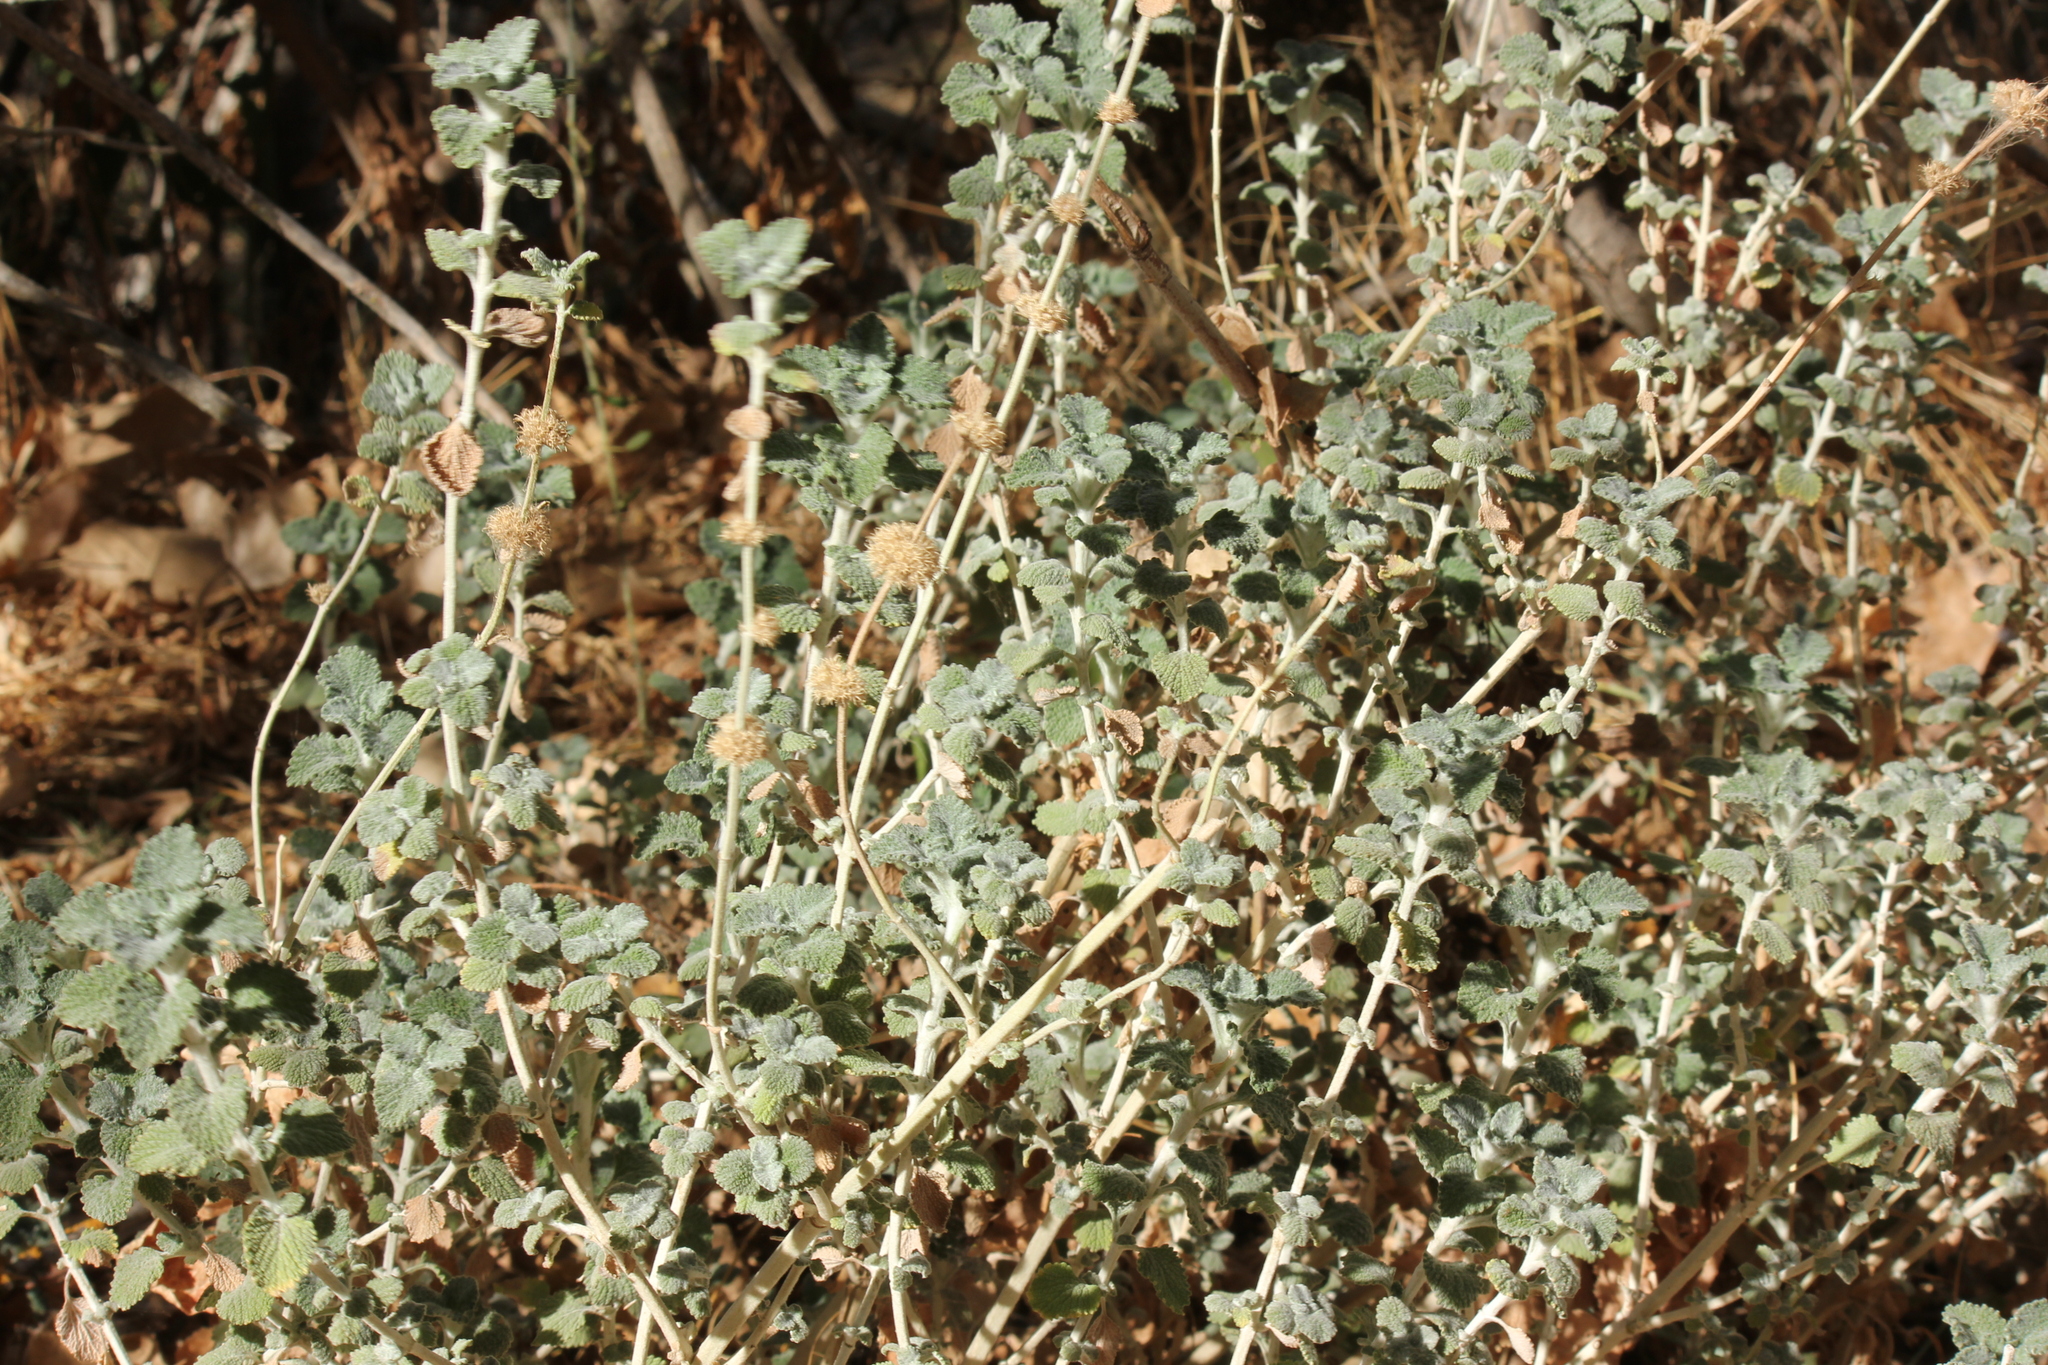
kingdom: Plantae
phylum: Tracheophyta
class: Magnoliopsida
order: Lamiales
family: Lamiaceae
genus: Marrubium
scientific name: Marrubium vulgare
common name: Horehound
